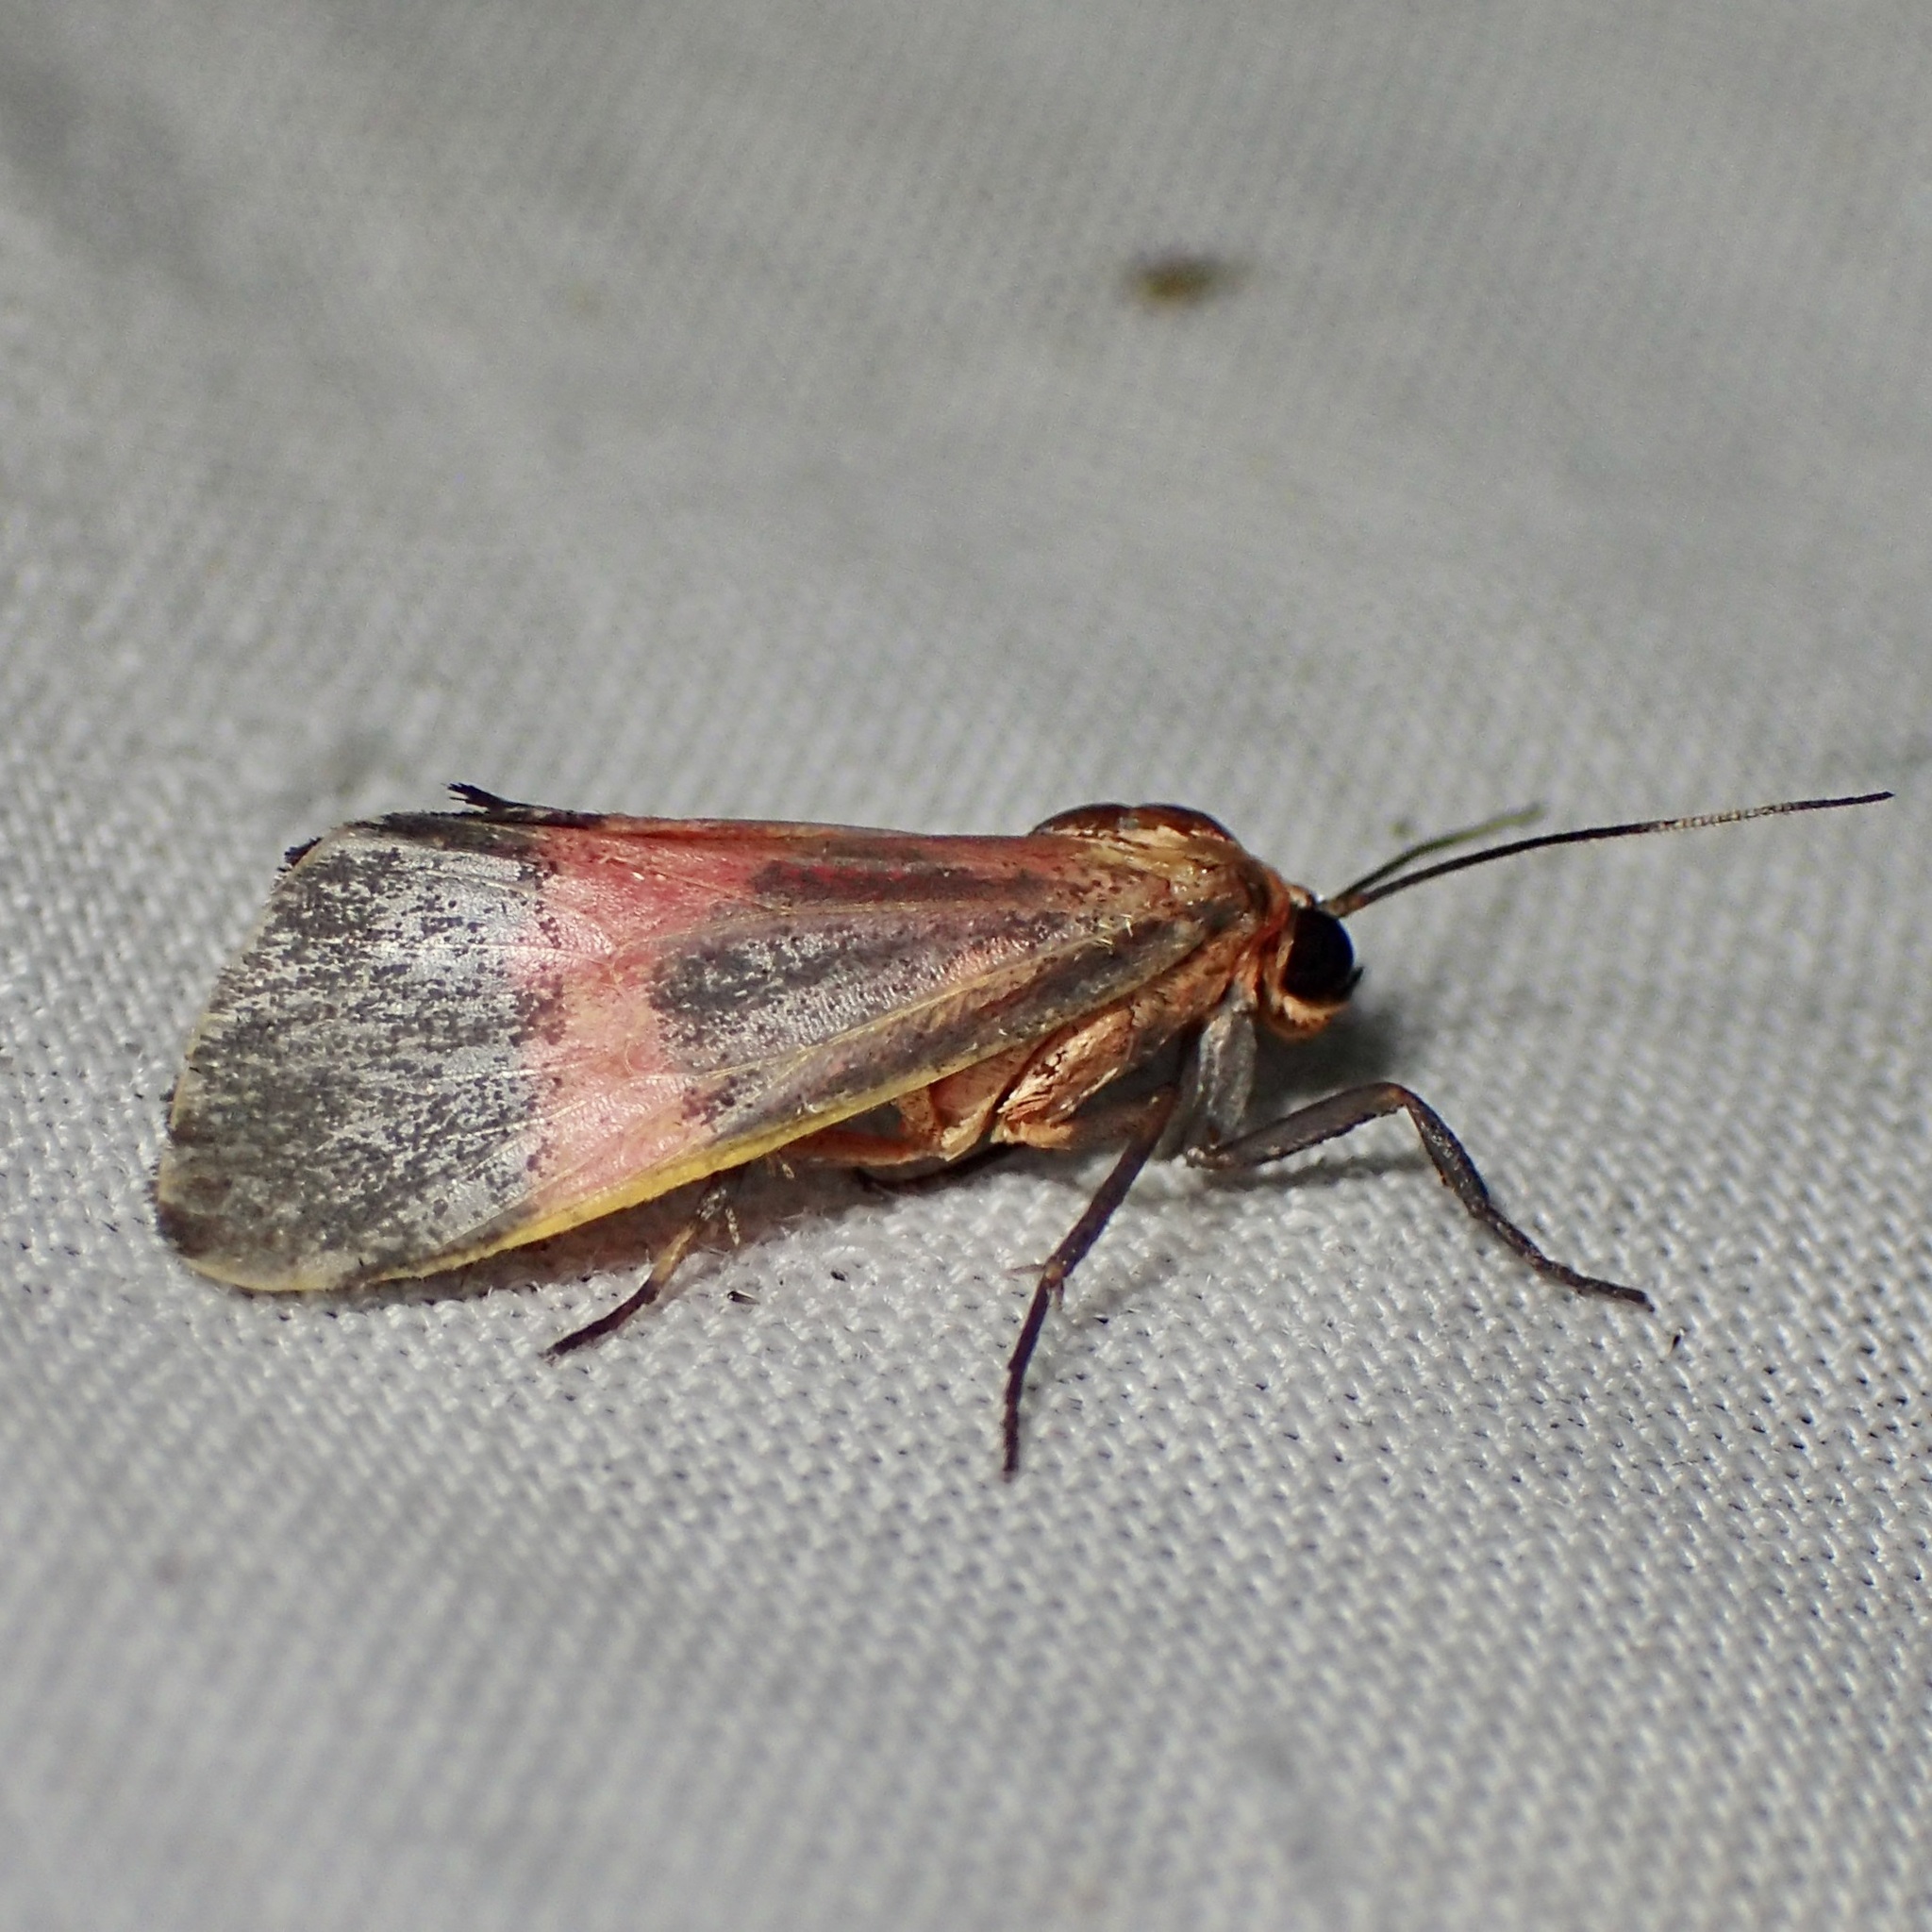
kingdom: Animalia
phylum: Arthropoda
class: Insecta
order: Lepidoptera
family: Erebidae
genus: Cisthene
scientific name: Cisthene martini
